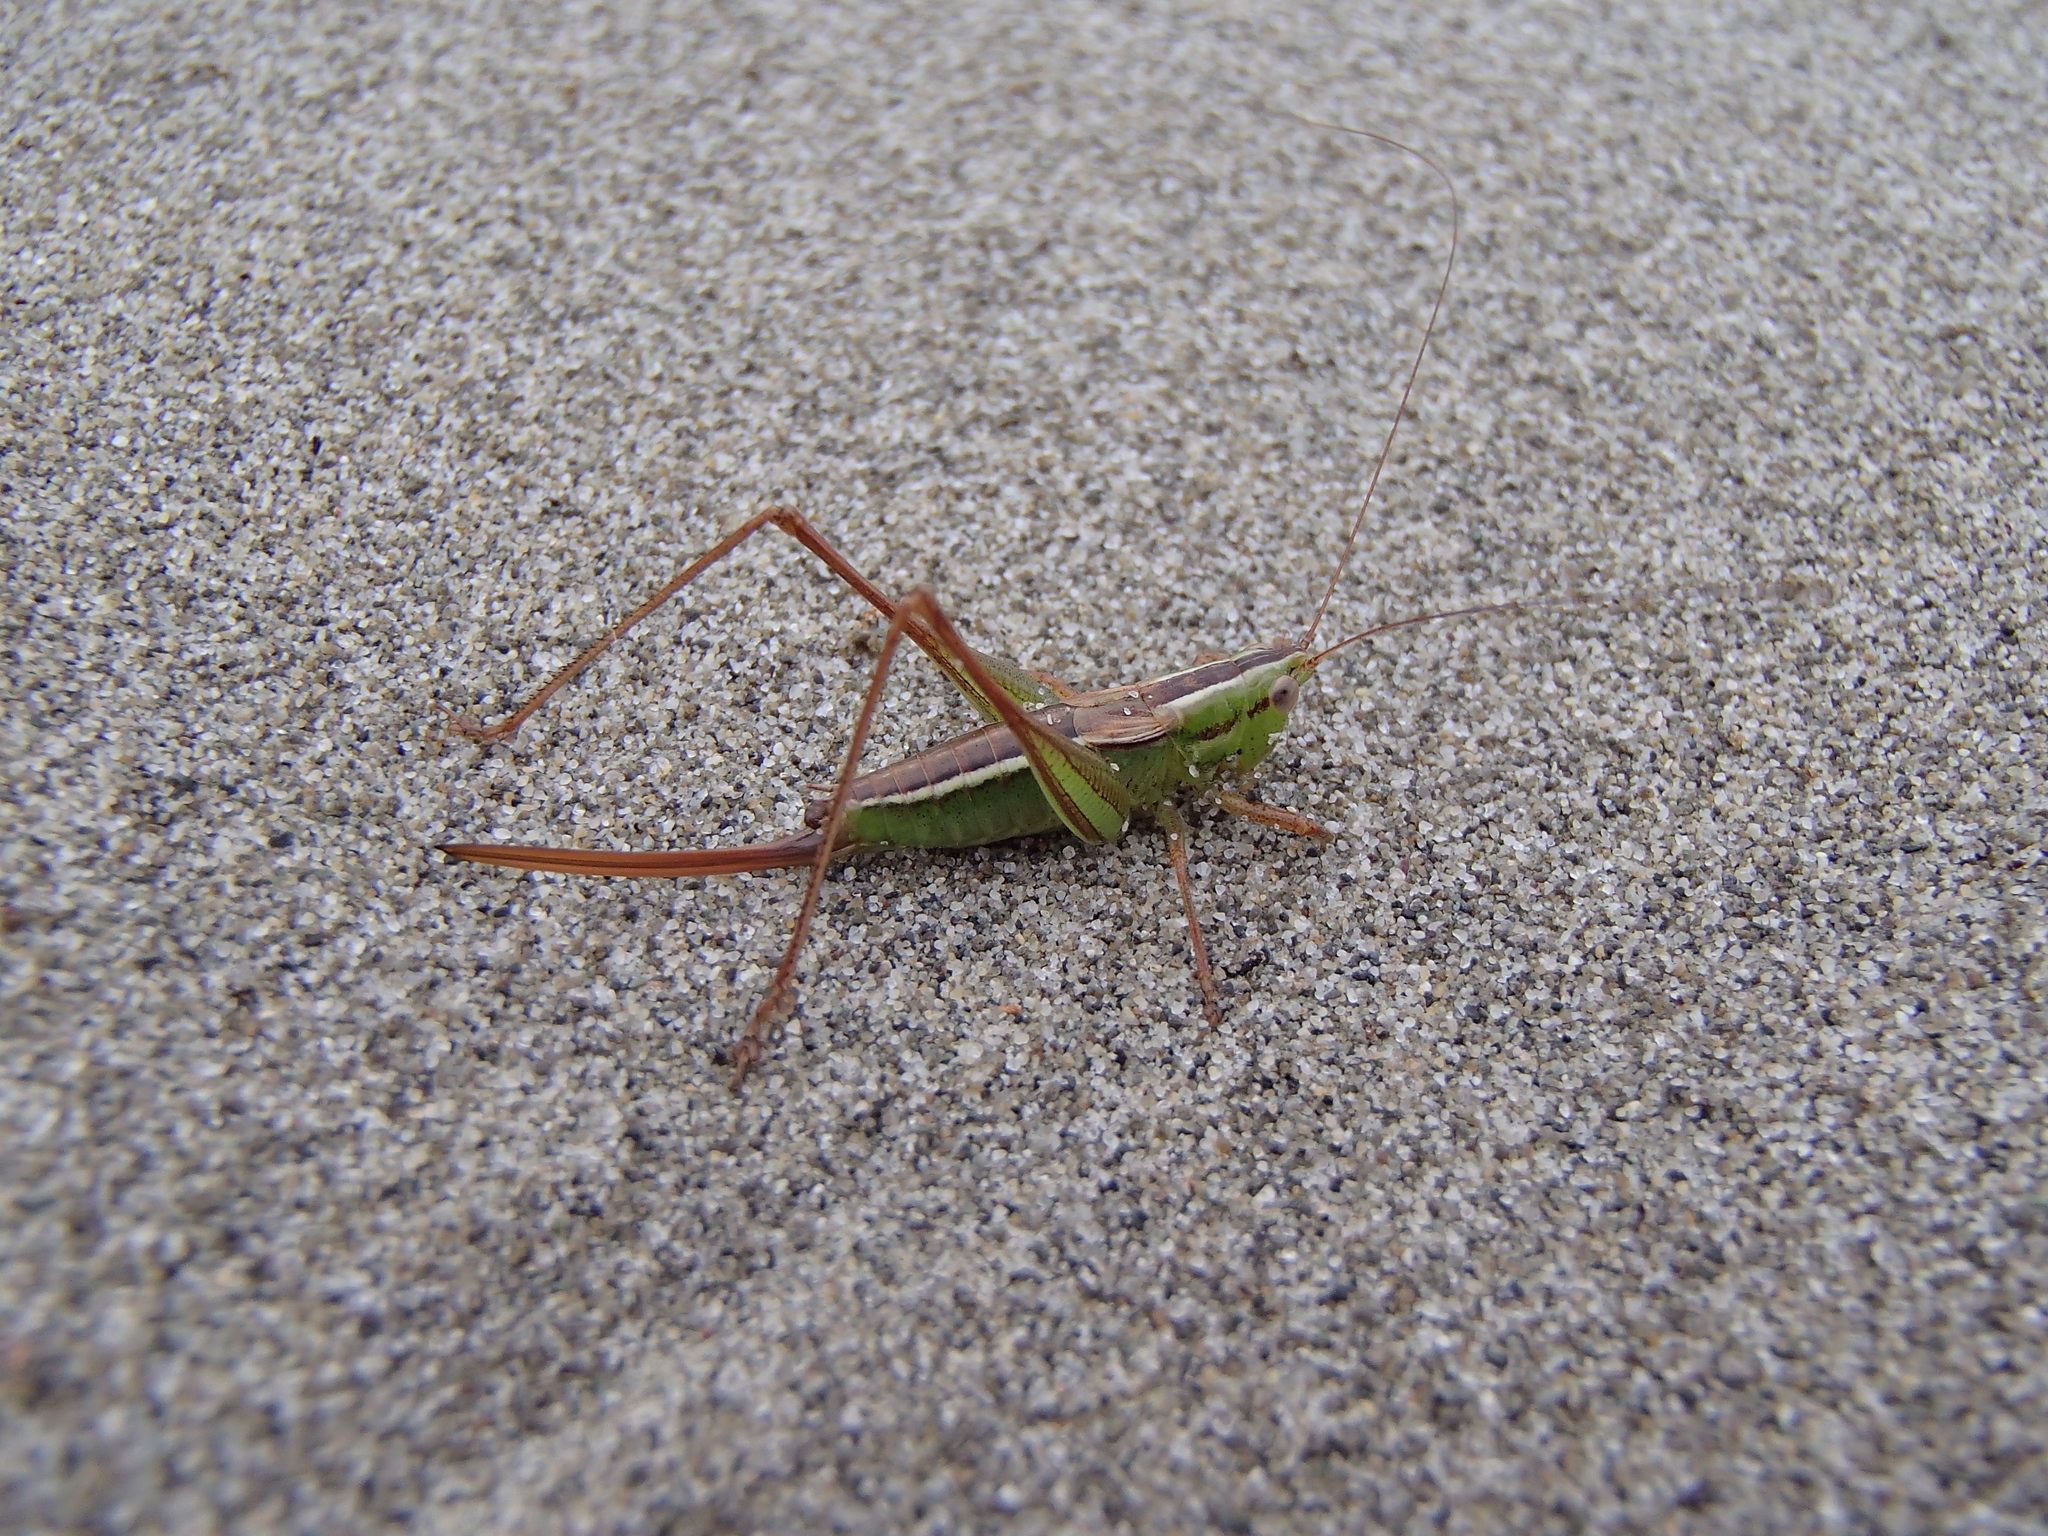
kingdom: Animalia
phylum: Arthropoda
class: Insecta
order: Orthoptera
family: Tettigoniidae
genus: Conocephalus
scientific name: Conocephalus bilineatus
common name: Small meadow katydid
